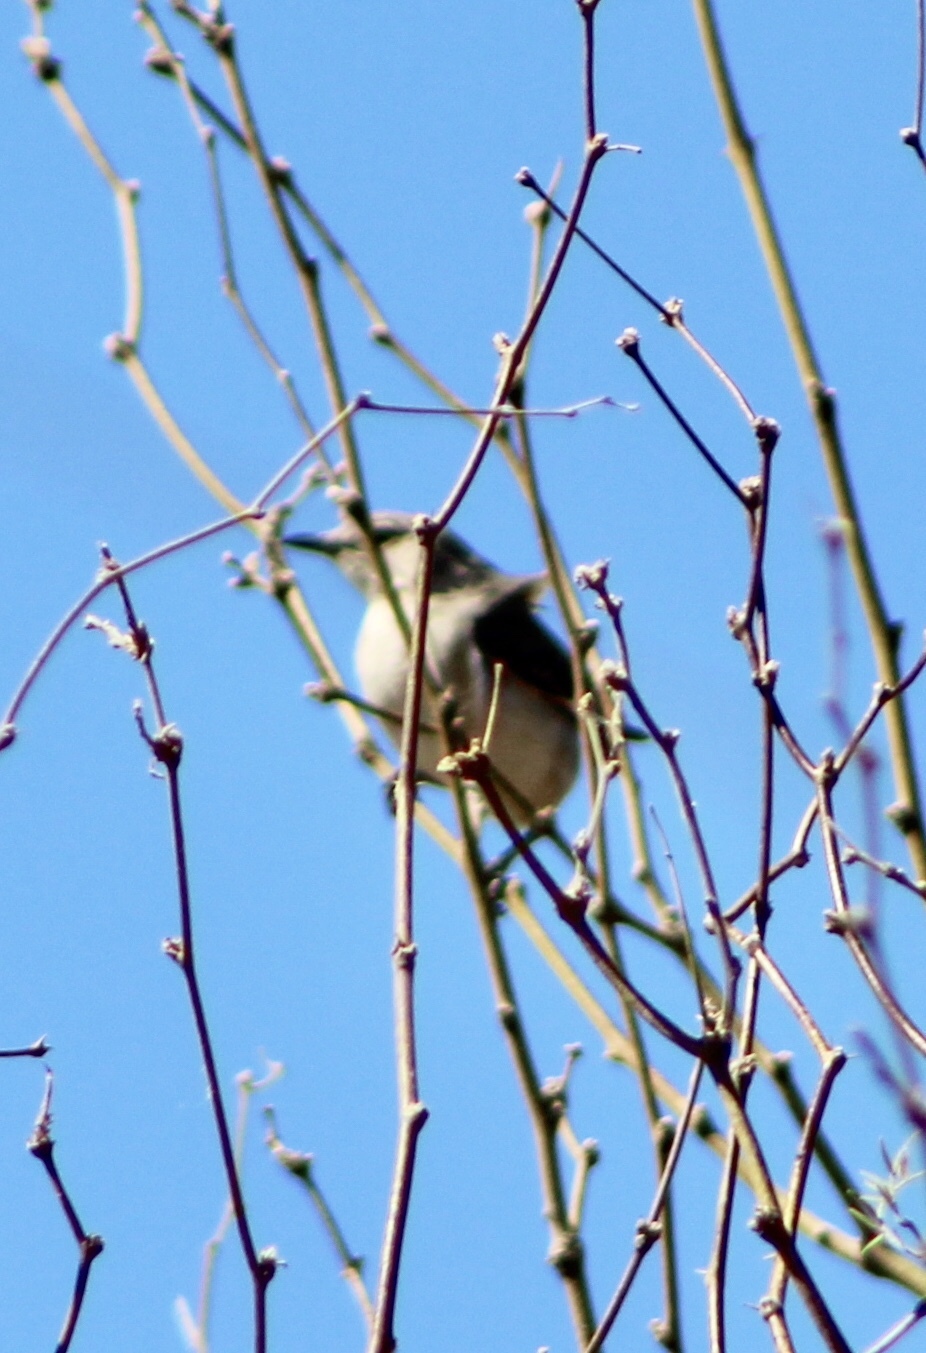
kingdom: Animalia
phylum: Chordata
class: Aves
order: Passeriformes
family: Mimidae
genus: Mimus
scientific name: Mimus polyglottos
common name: Northern mockingbird
